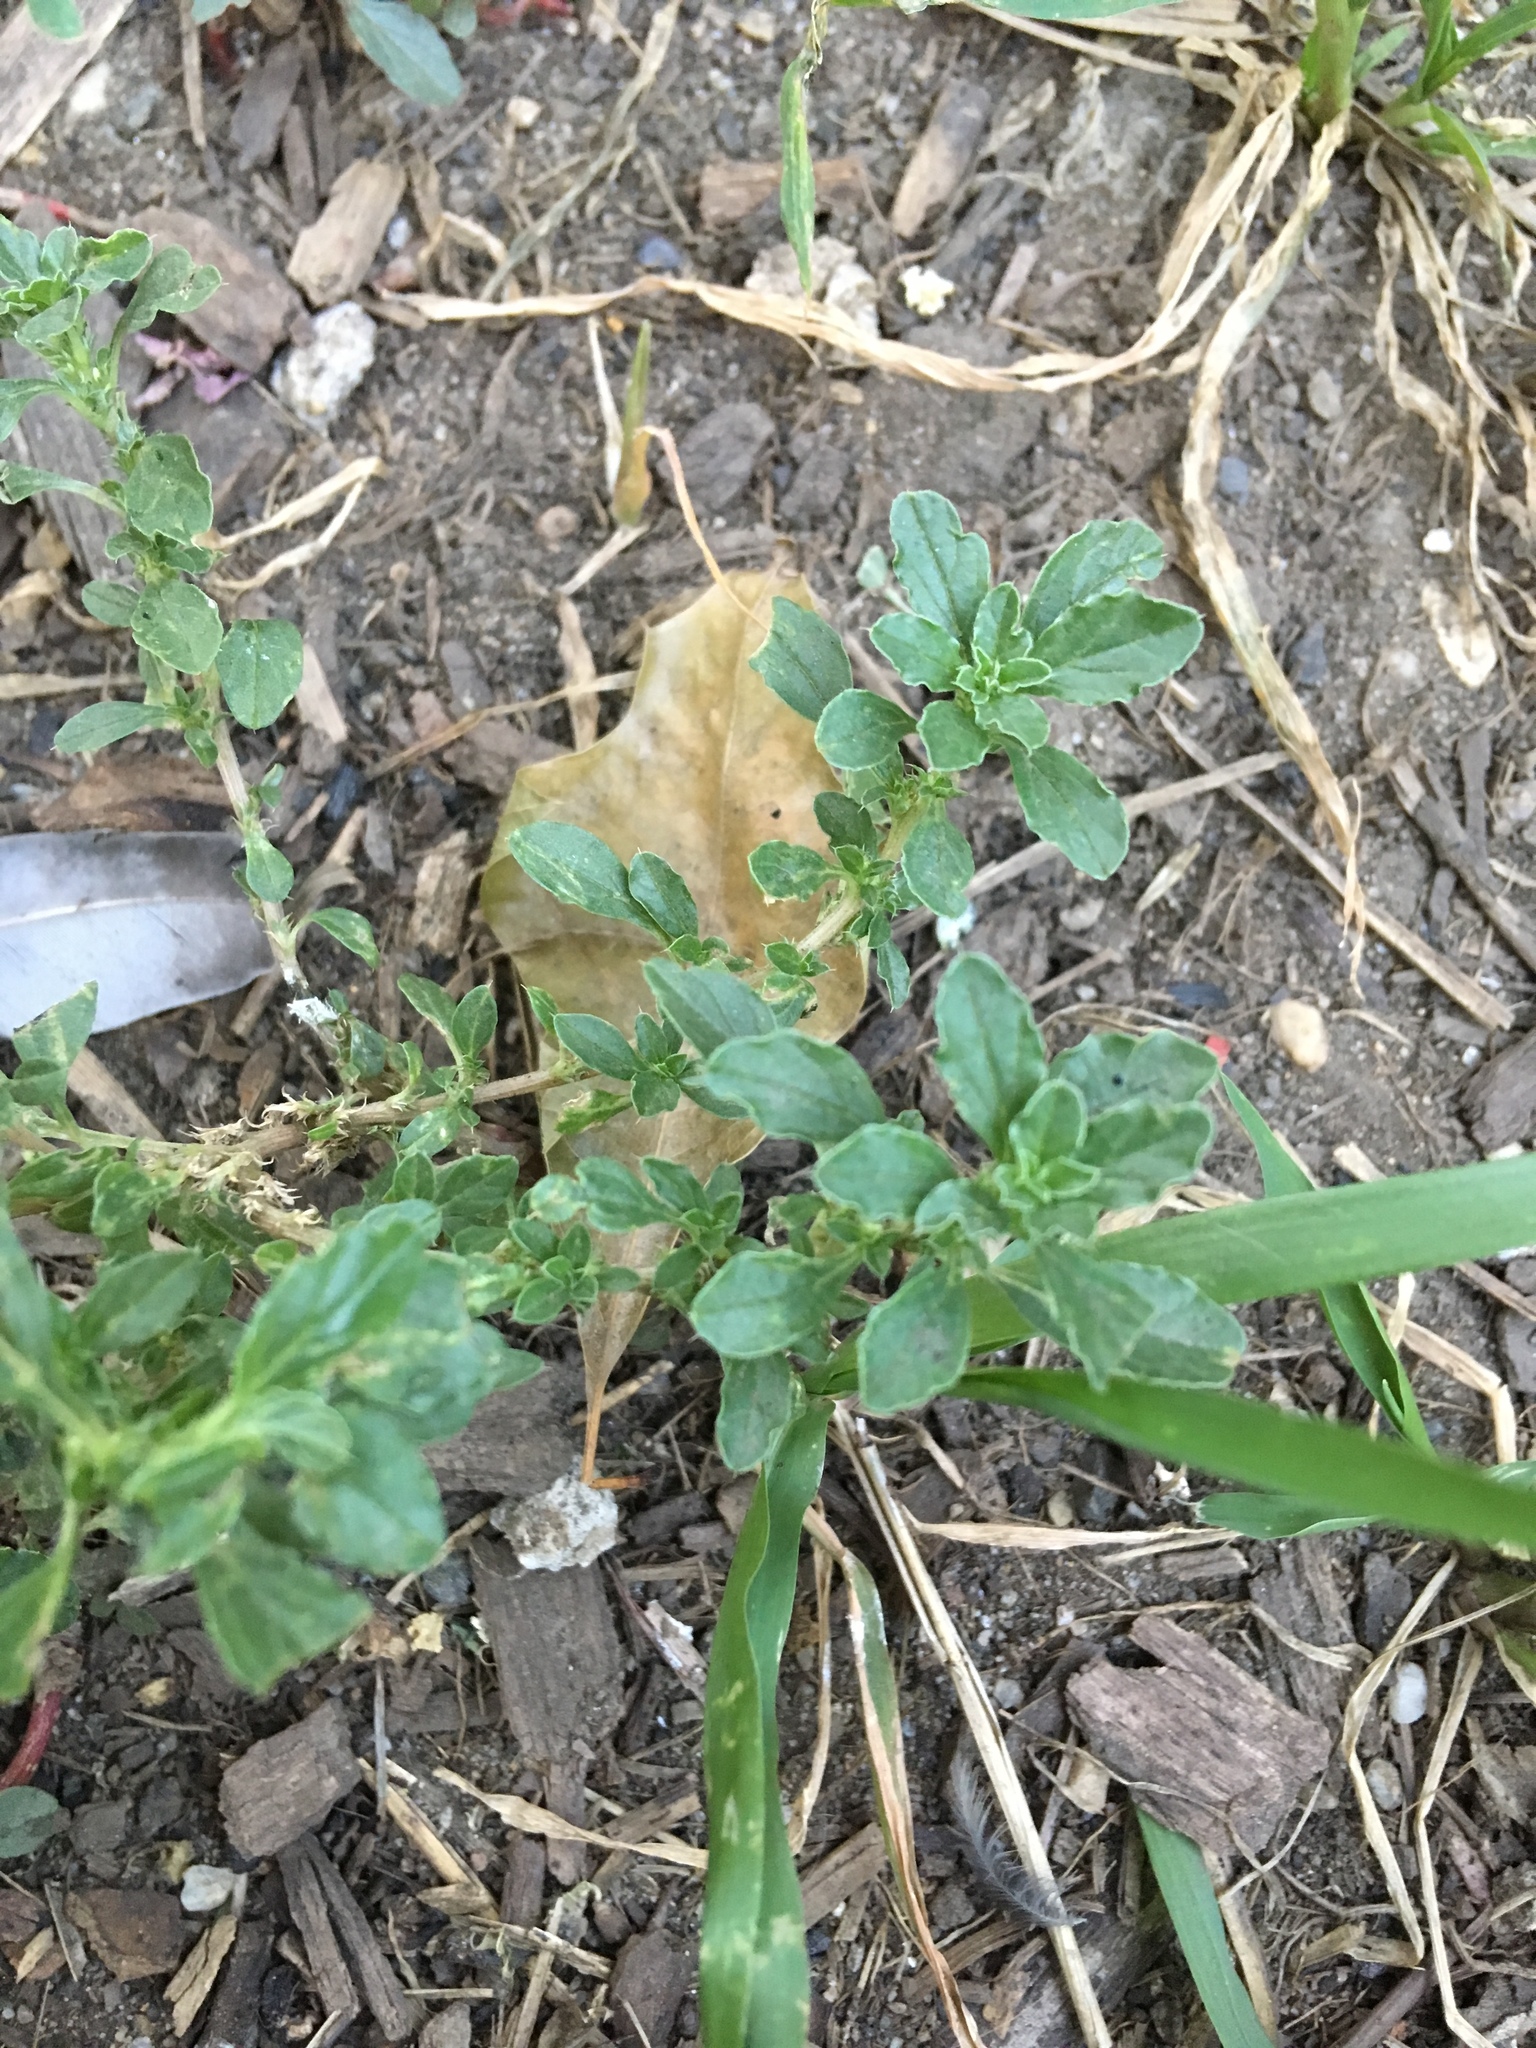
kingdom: Plantae
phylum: Tracheophyta
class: Magnoliopsida
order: Caryophyllales
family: Amaranthaceae
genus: Amaranthus
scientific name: Amaranthus albus
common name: White pigweed
